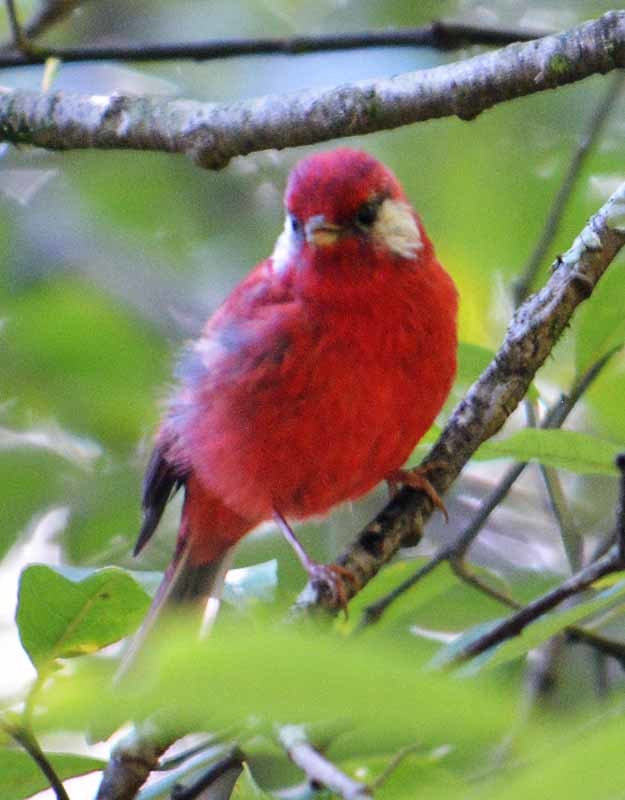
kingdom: Animalia
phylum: Chordata
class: Aves
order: Passeriformes
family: Parulidae
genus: Cardellina
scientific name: Cardellina rubra
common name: Red warbler
